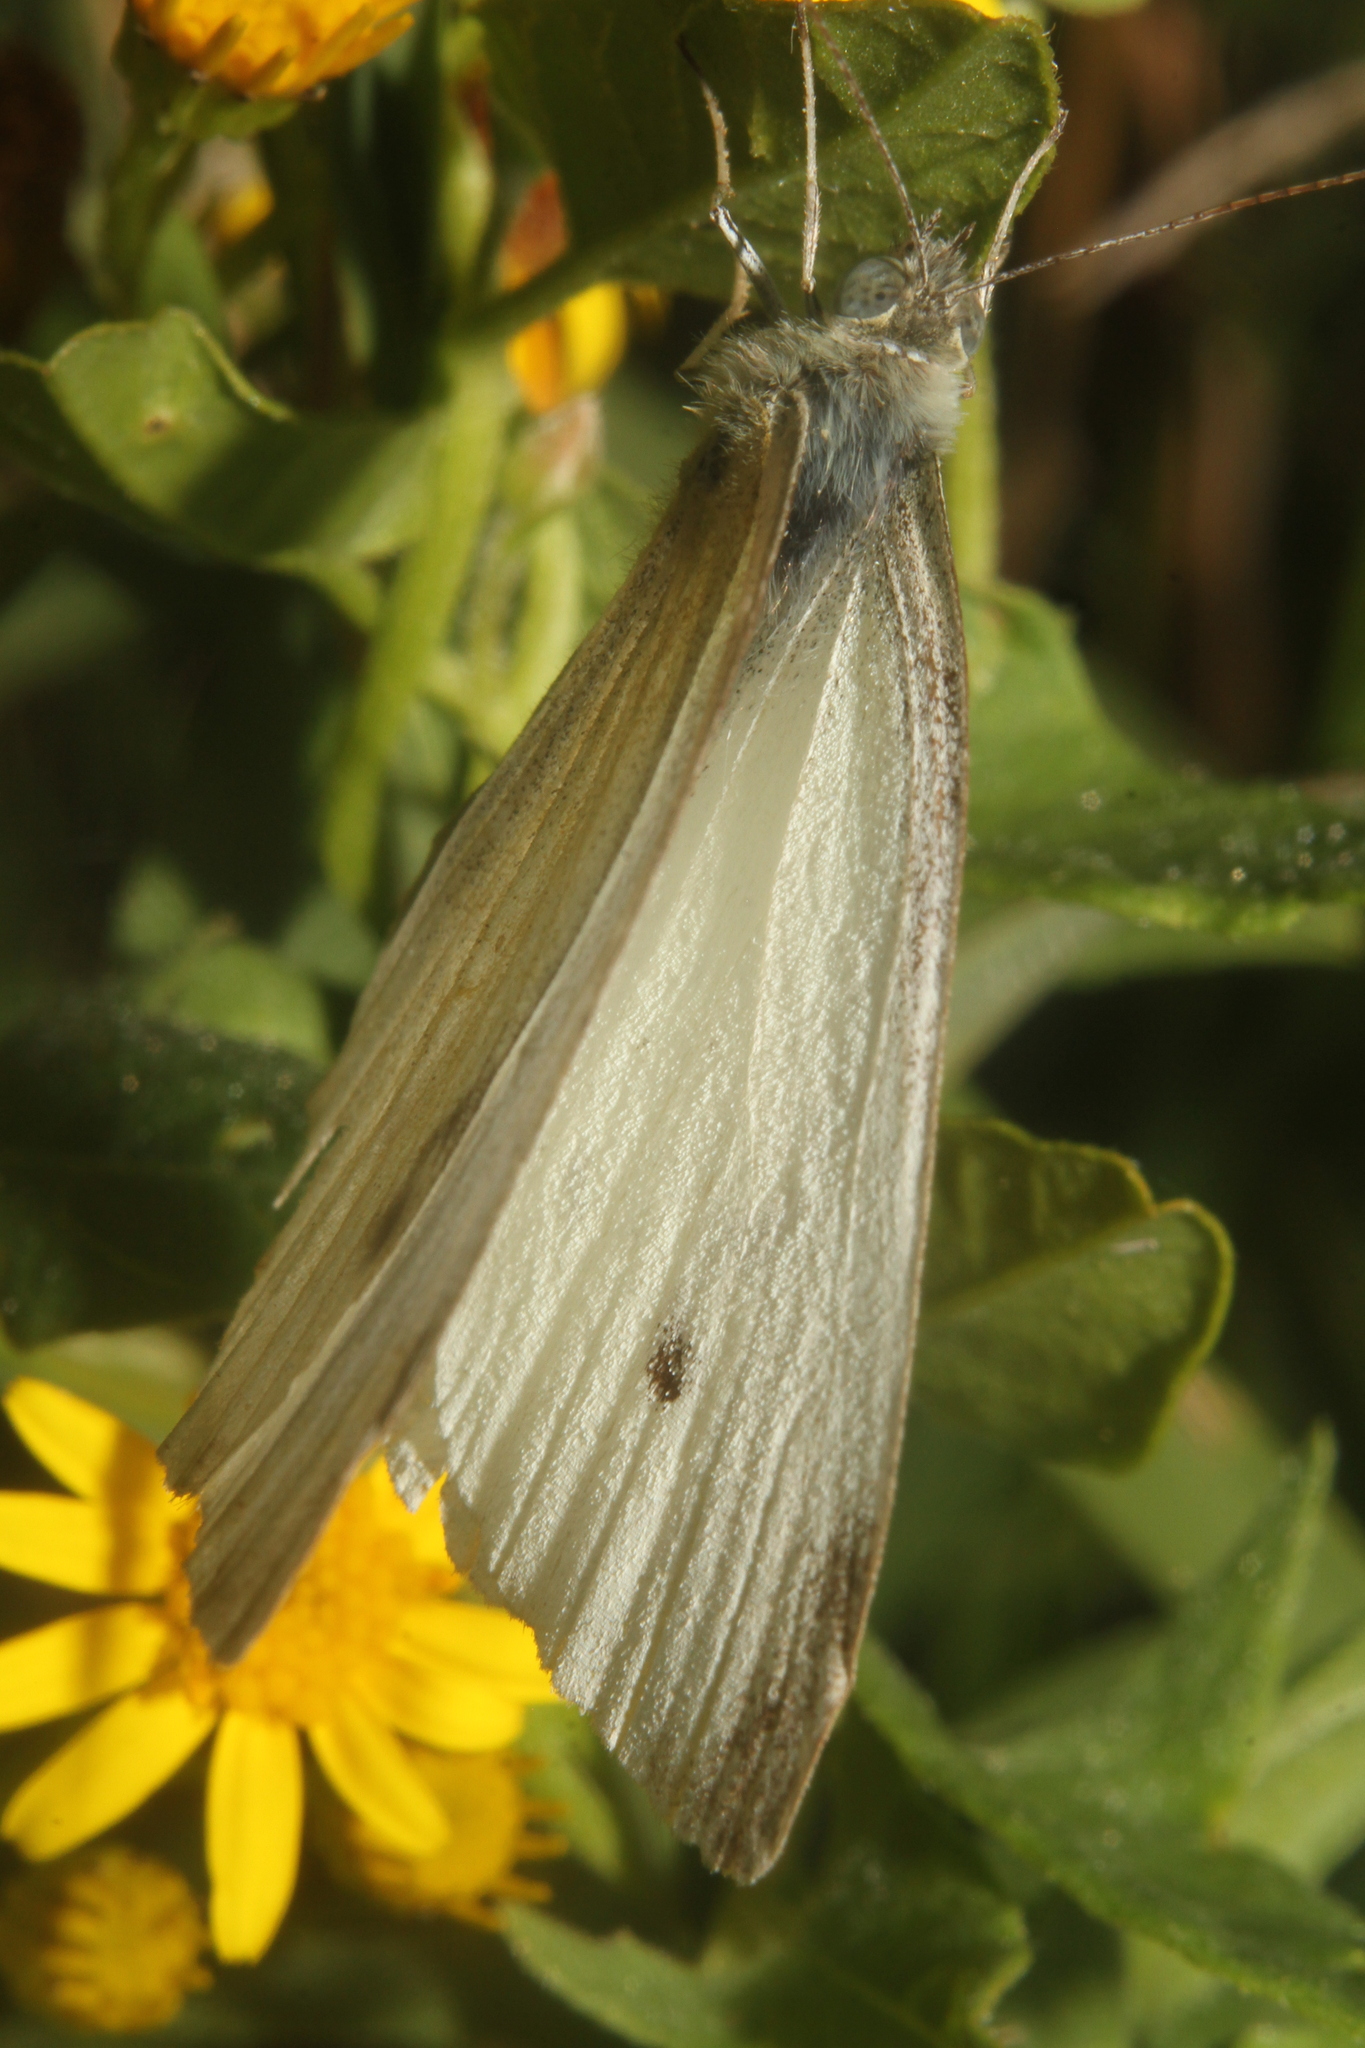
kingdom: Animalia
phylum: Arthropoda
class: Insecta
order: Lepidoptera
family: Pieridae
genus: Pieris
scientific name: Pieris rapae
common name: Small white
